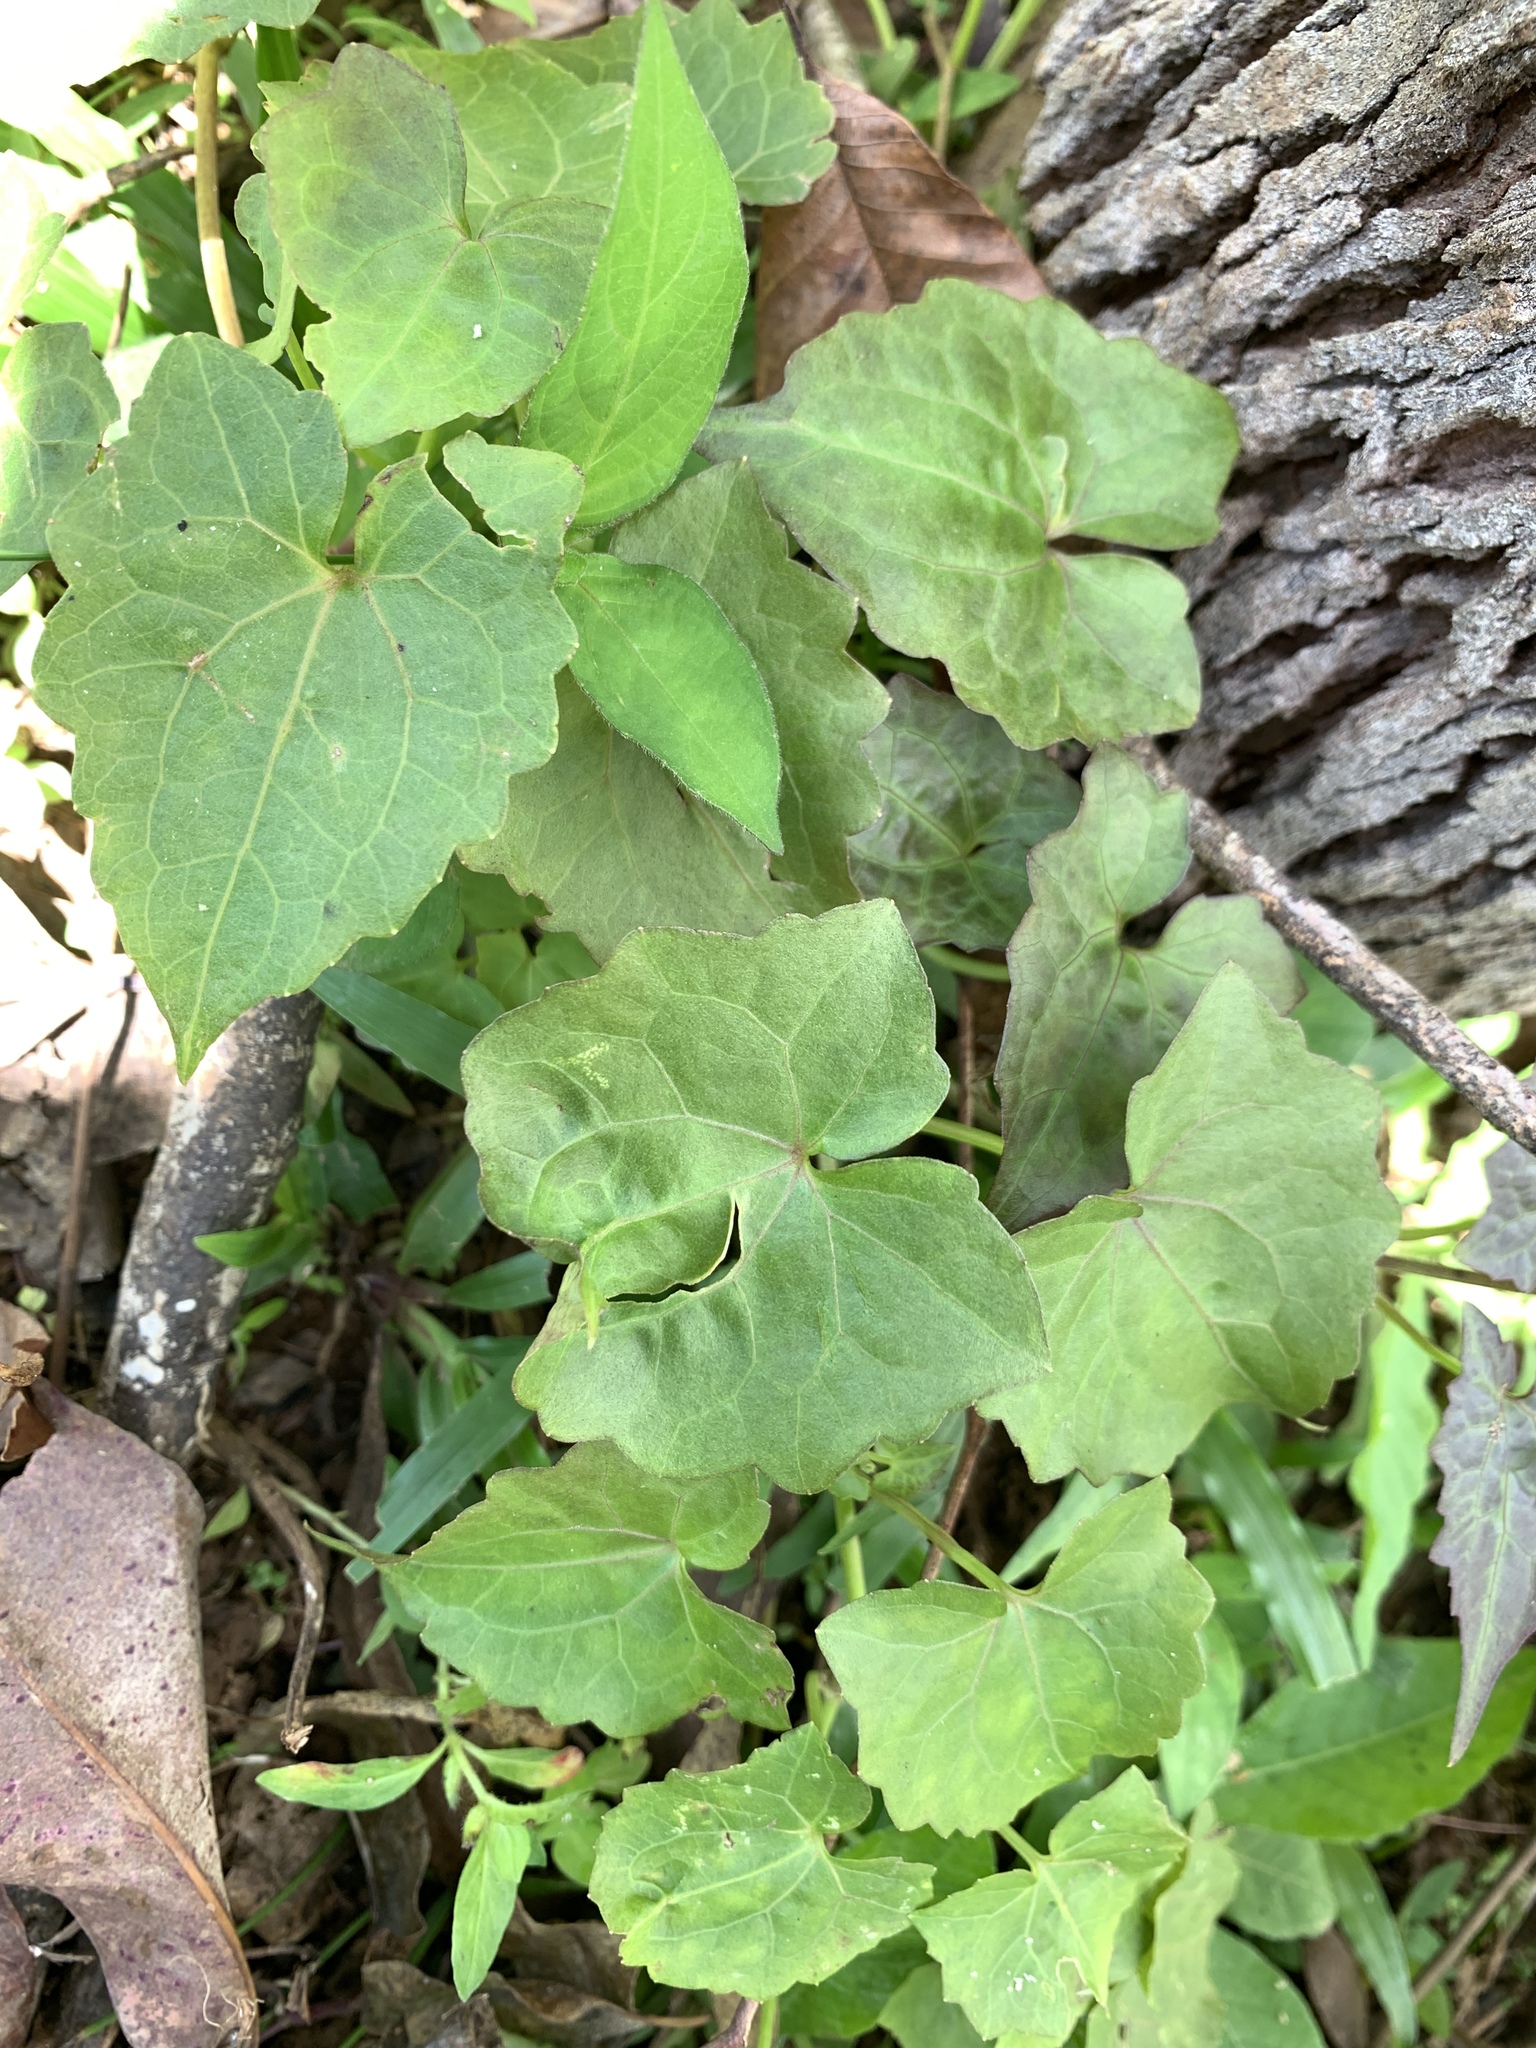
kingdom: Plantae
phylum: Tracheophyta
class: Magnoliopsida
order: Asterales
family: Asteraceae
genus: Mikania
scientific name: Mikania micrantha
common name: Mile-a-minute
